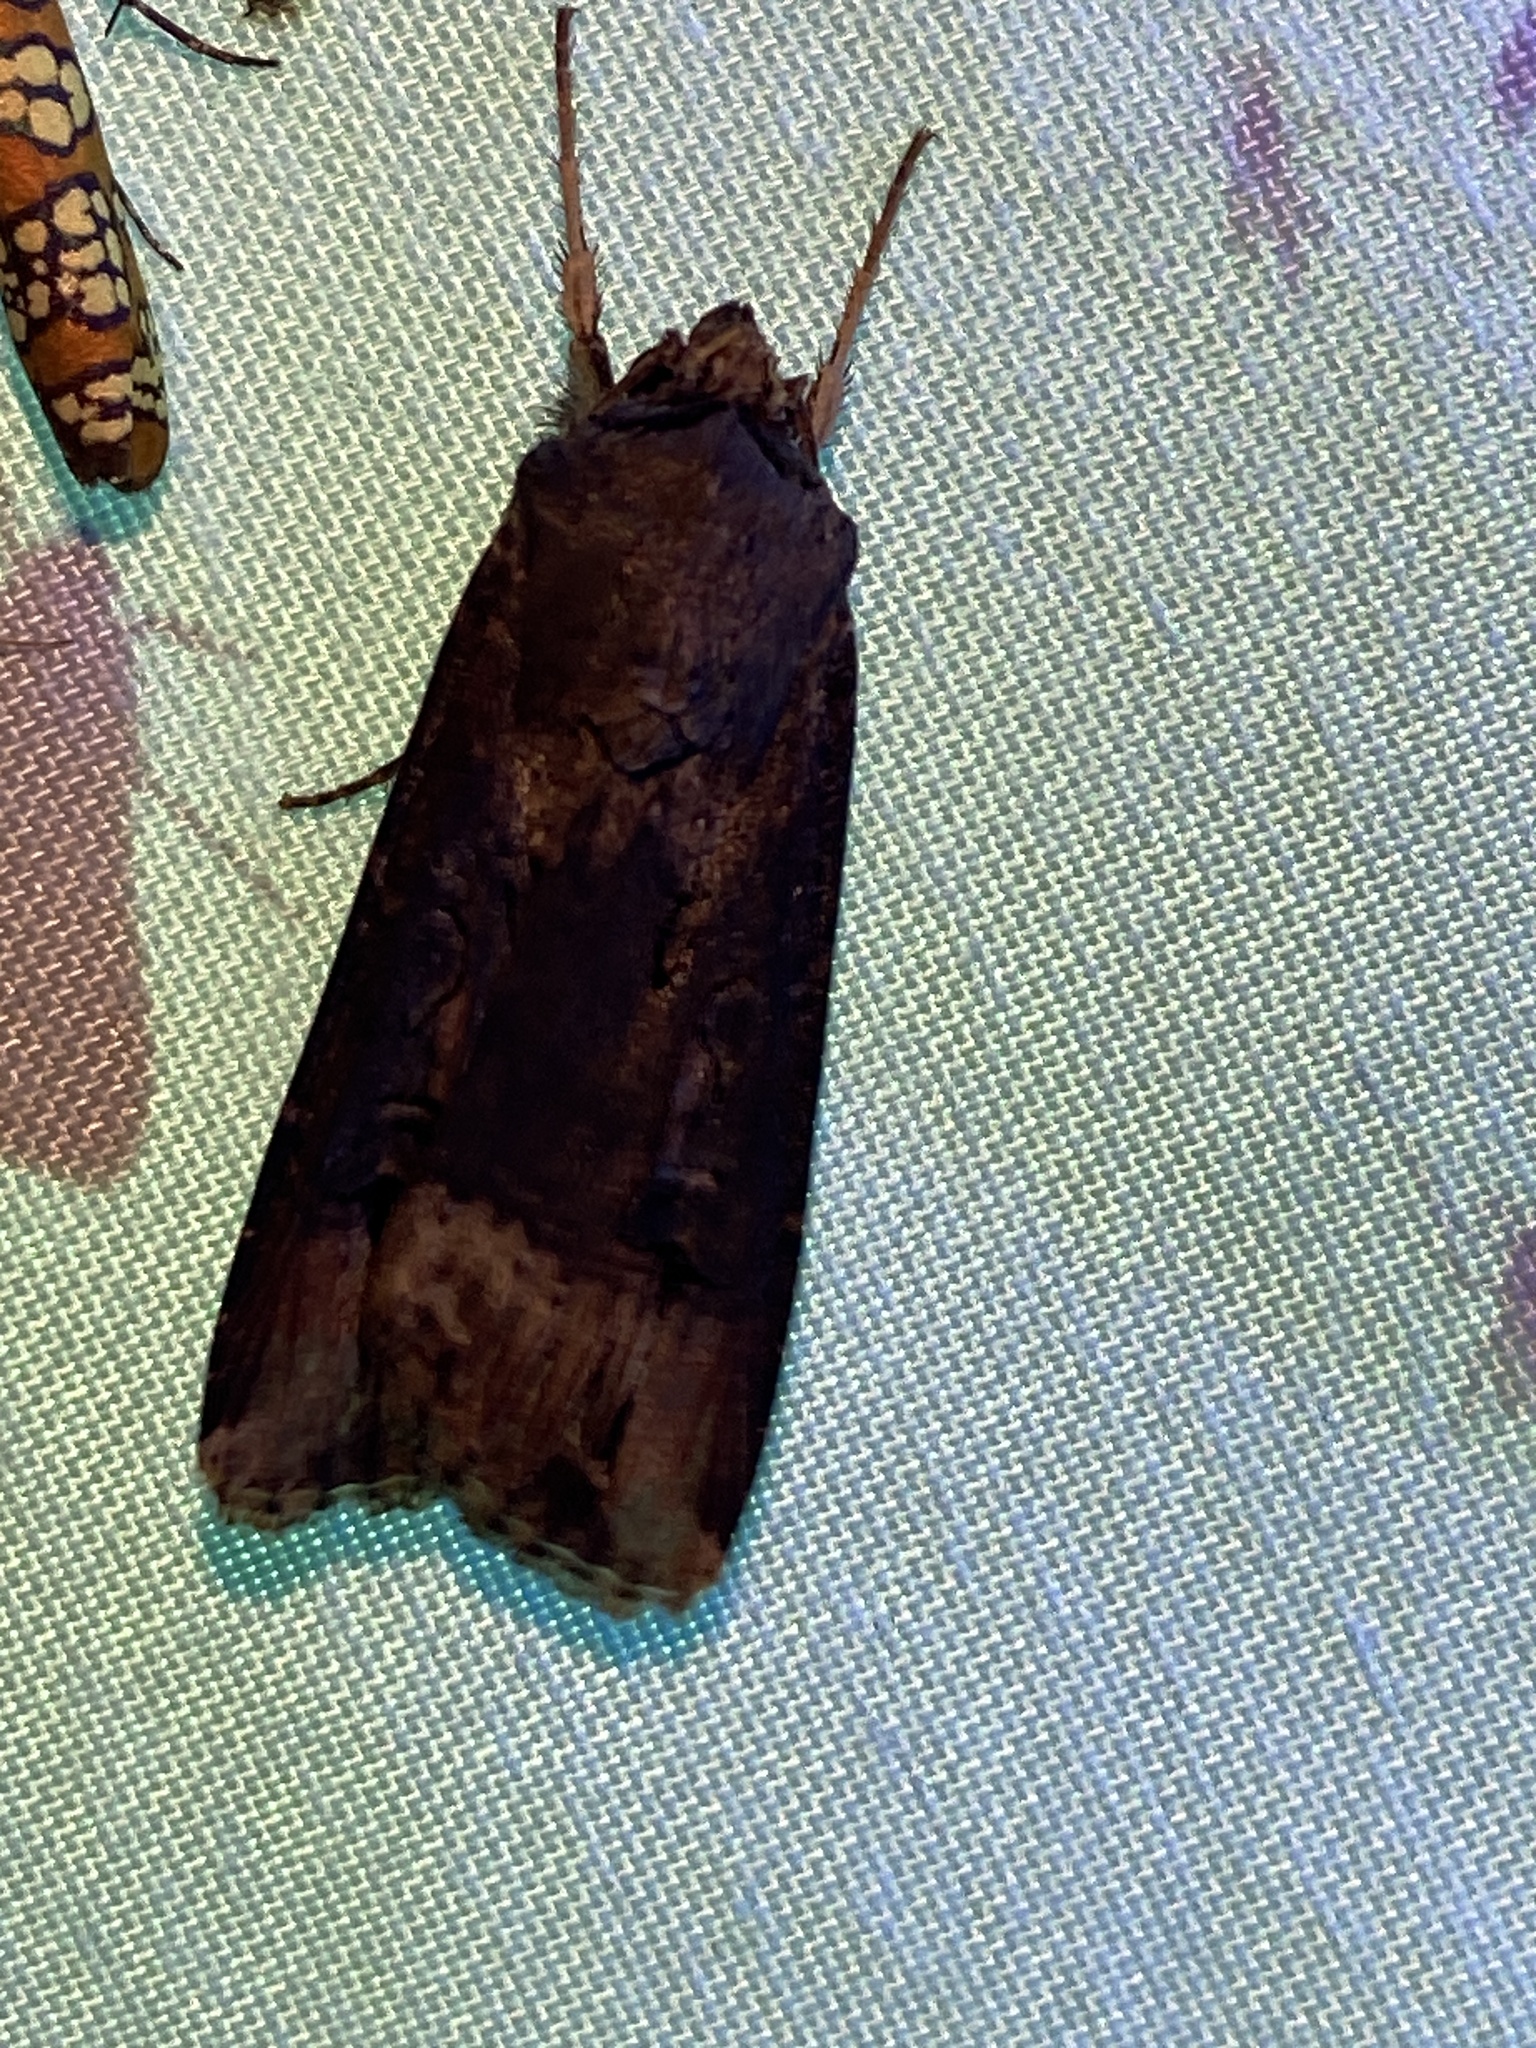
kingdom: Animalia
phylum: Arthropoda
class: Insecta
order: Lepidoptera
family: Noctuidae
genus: Agrotis
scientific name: Agrotis ipsilon
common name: Dark sword-grass
